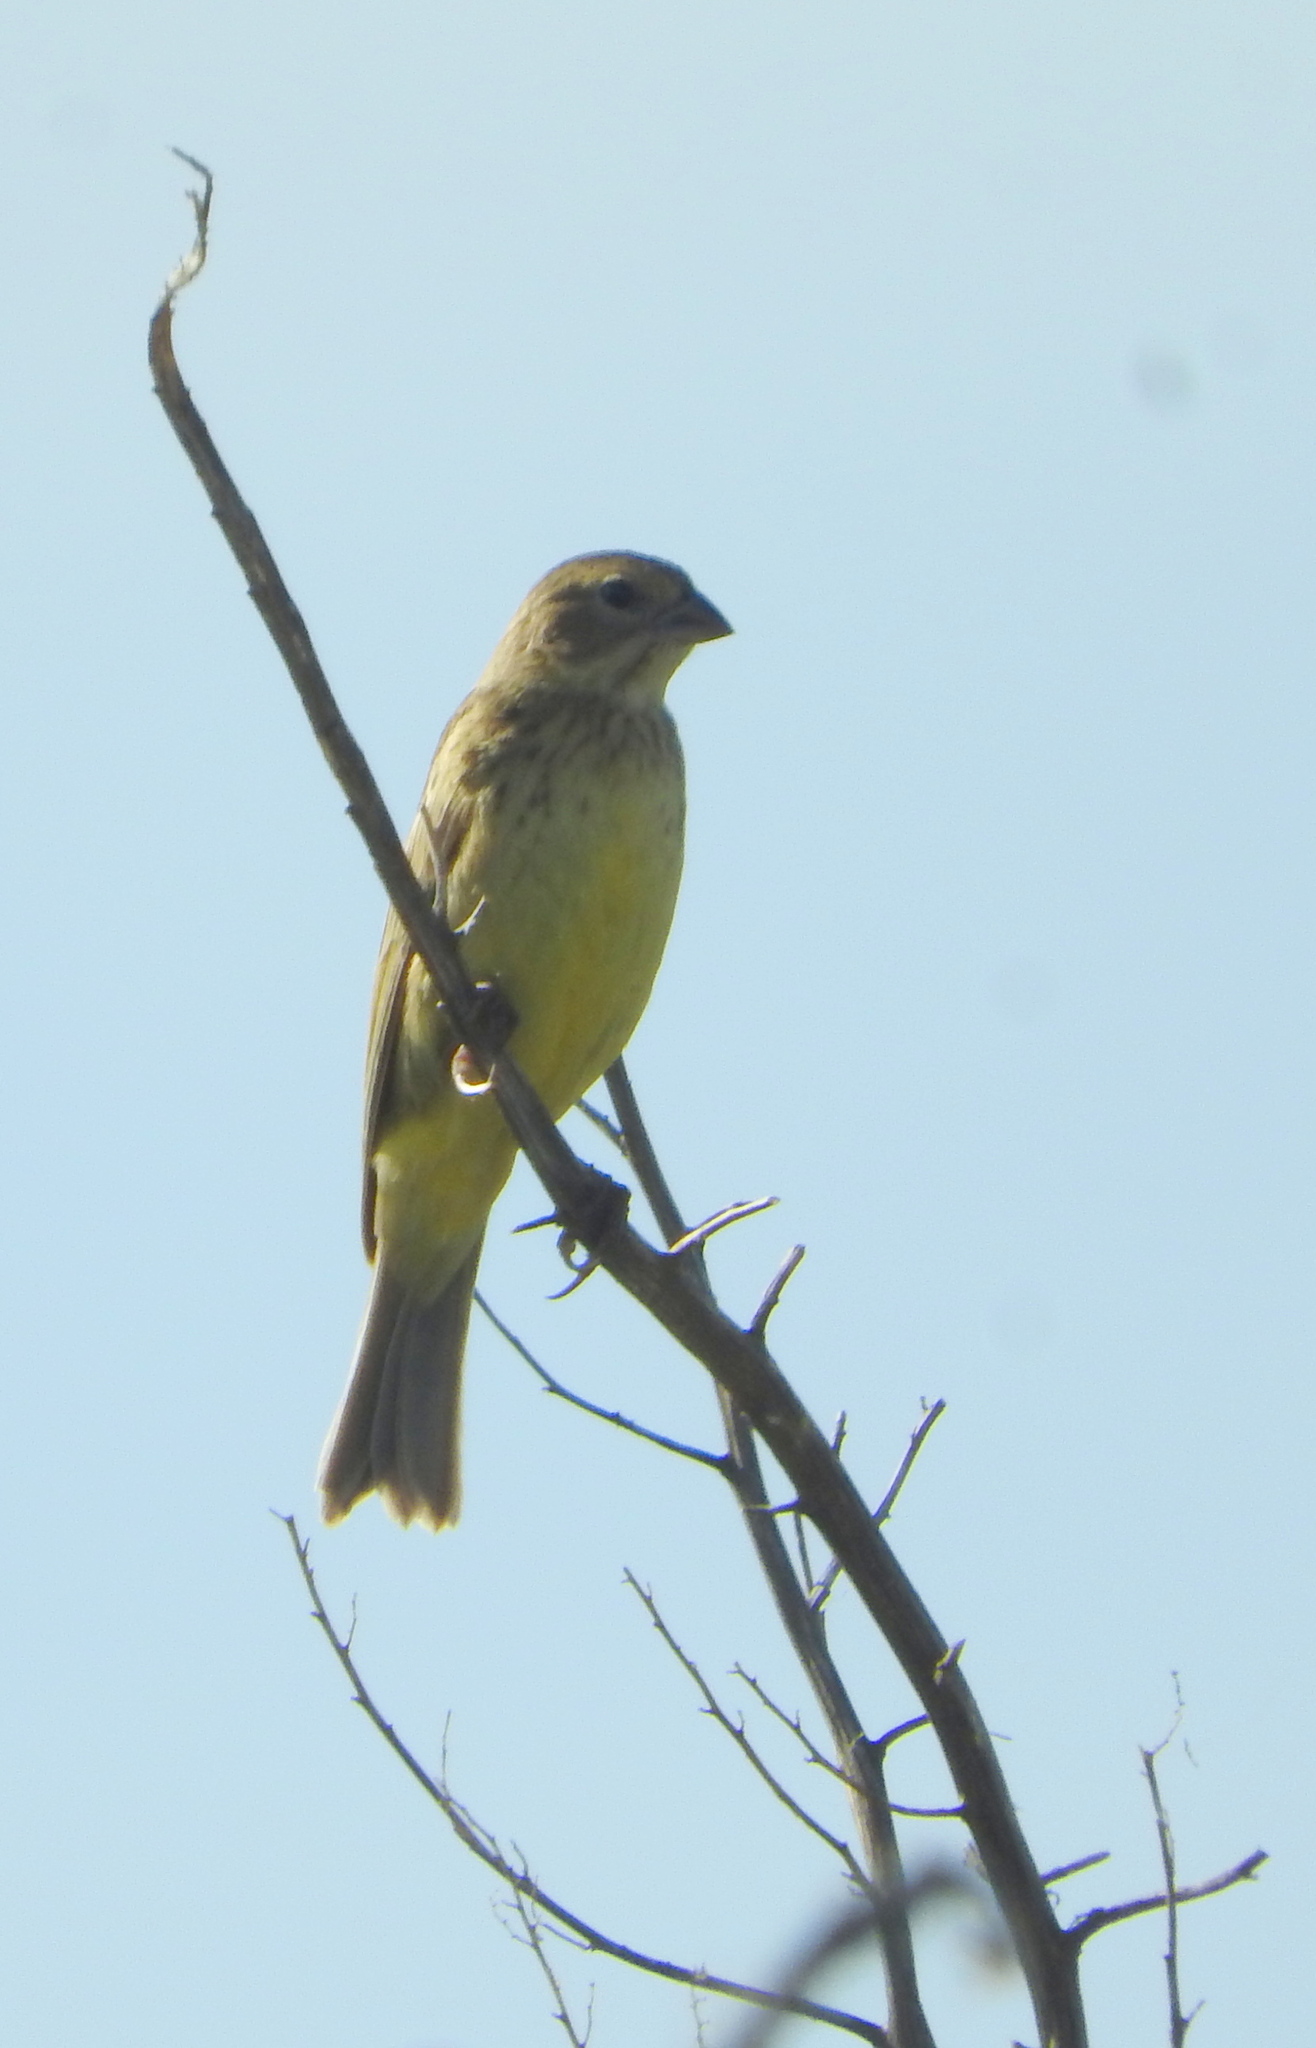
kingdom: Animalia
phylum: Chordata
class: Aves
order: Passeriformes
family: Thraupidae
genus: Sicalis
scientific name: Sicalis luteola
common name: Grassland yellow-finch
